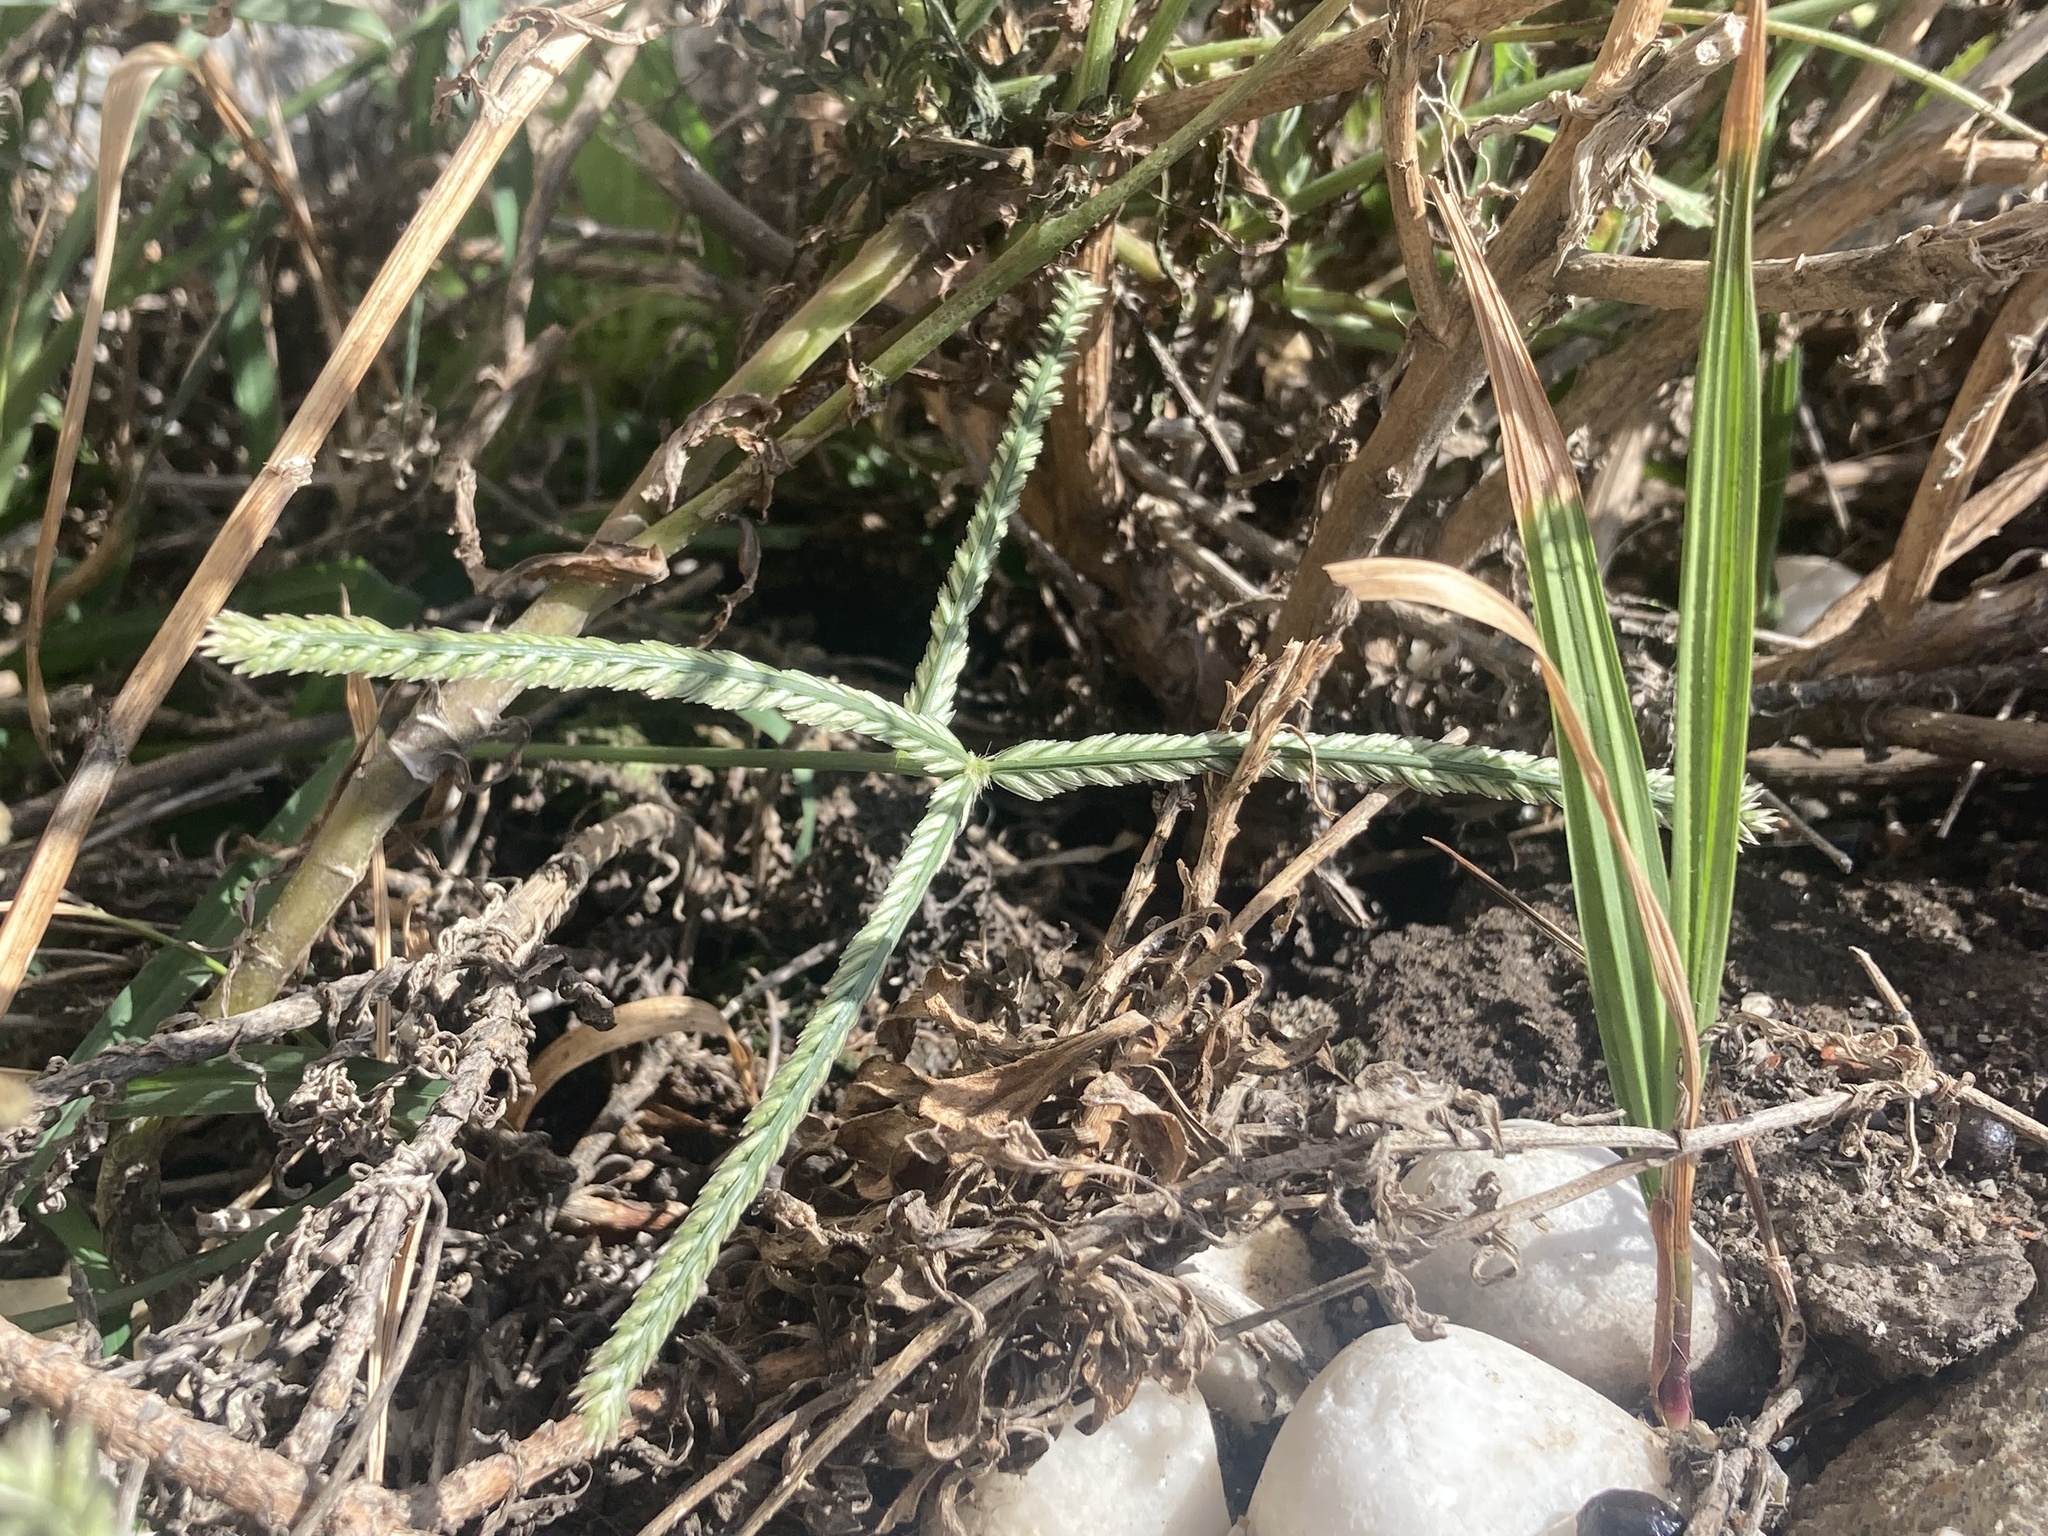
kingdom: Plantae
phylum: Tracheophyta
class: Liliopsida
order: Poales
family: Poaceae
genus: Eleusine
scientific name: Eleusine indica
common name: Yard-grass
